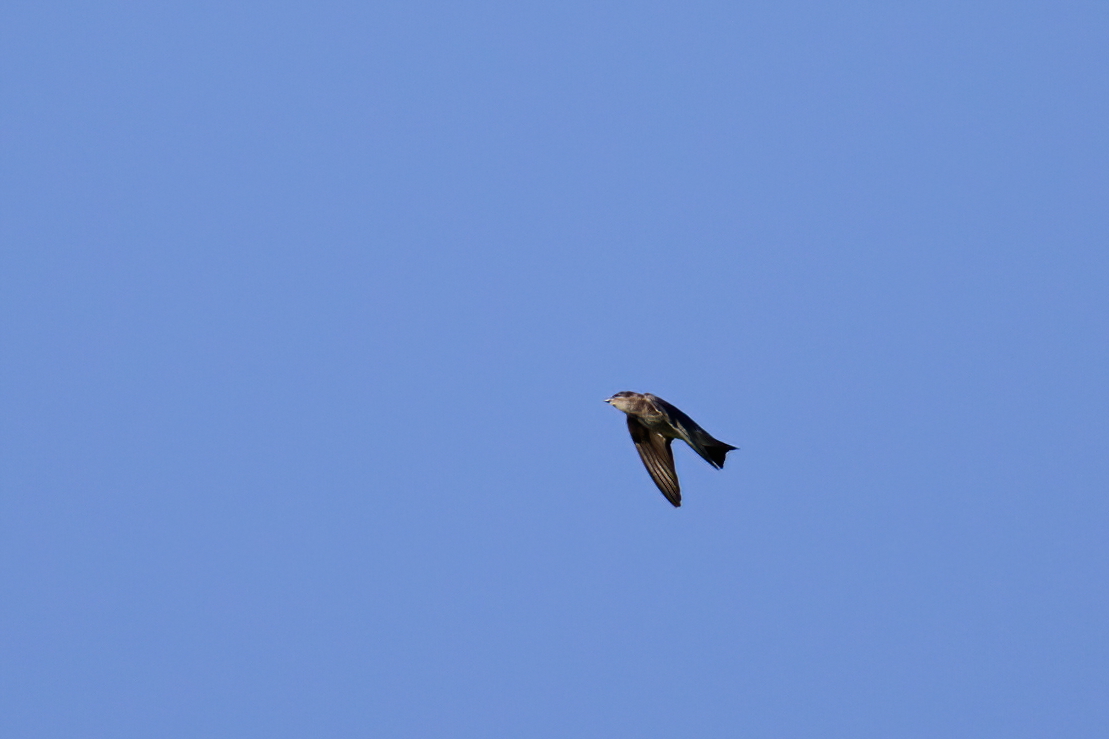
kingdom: Animalia
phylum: Chordata
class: Aves
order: Passeriformes
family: Hirundinidae
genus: Progne
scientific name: Progne subis
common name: Purple martin
